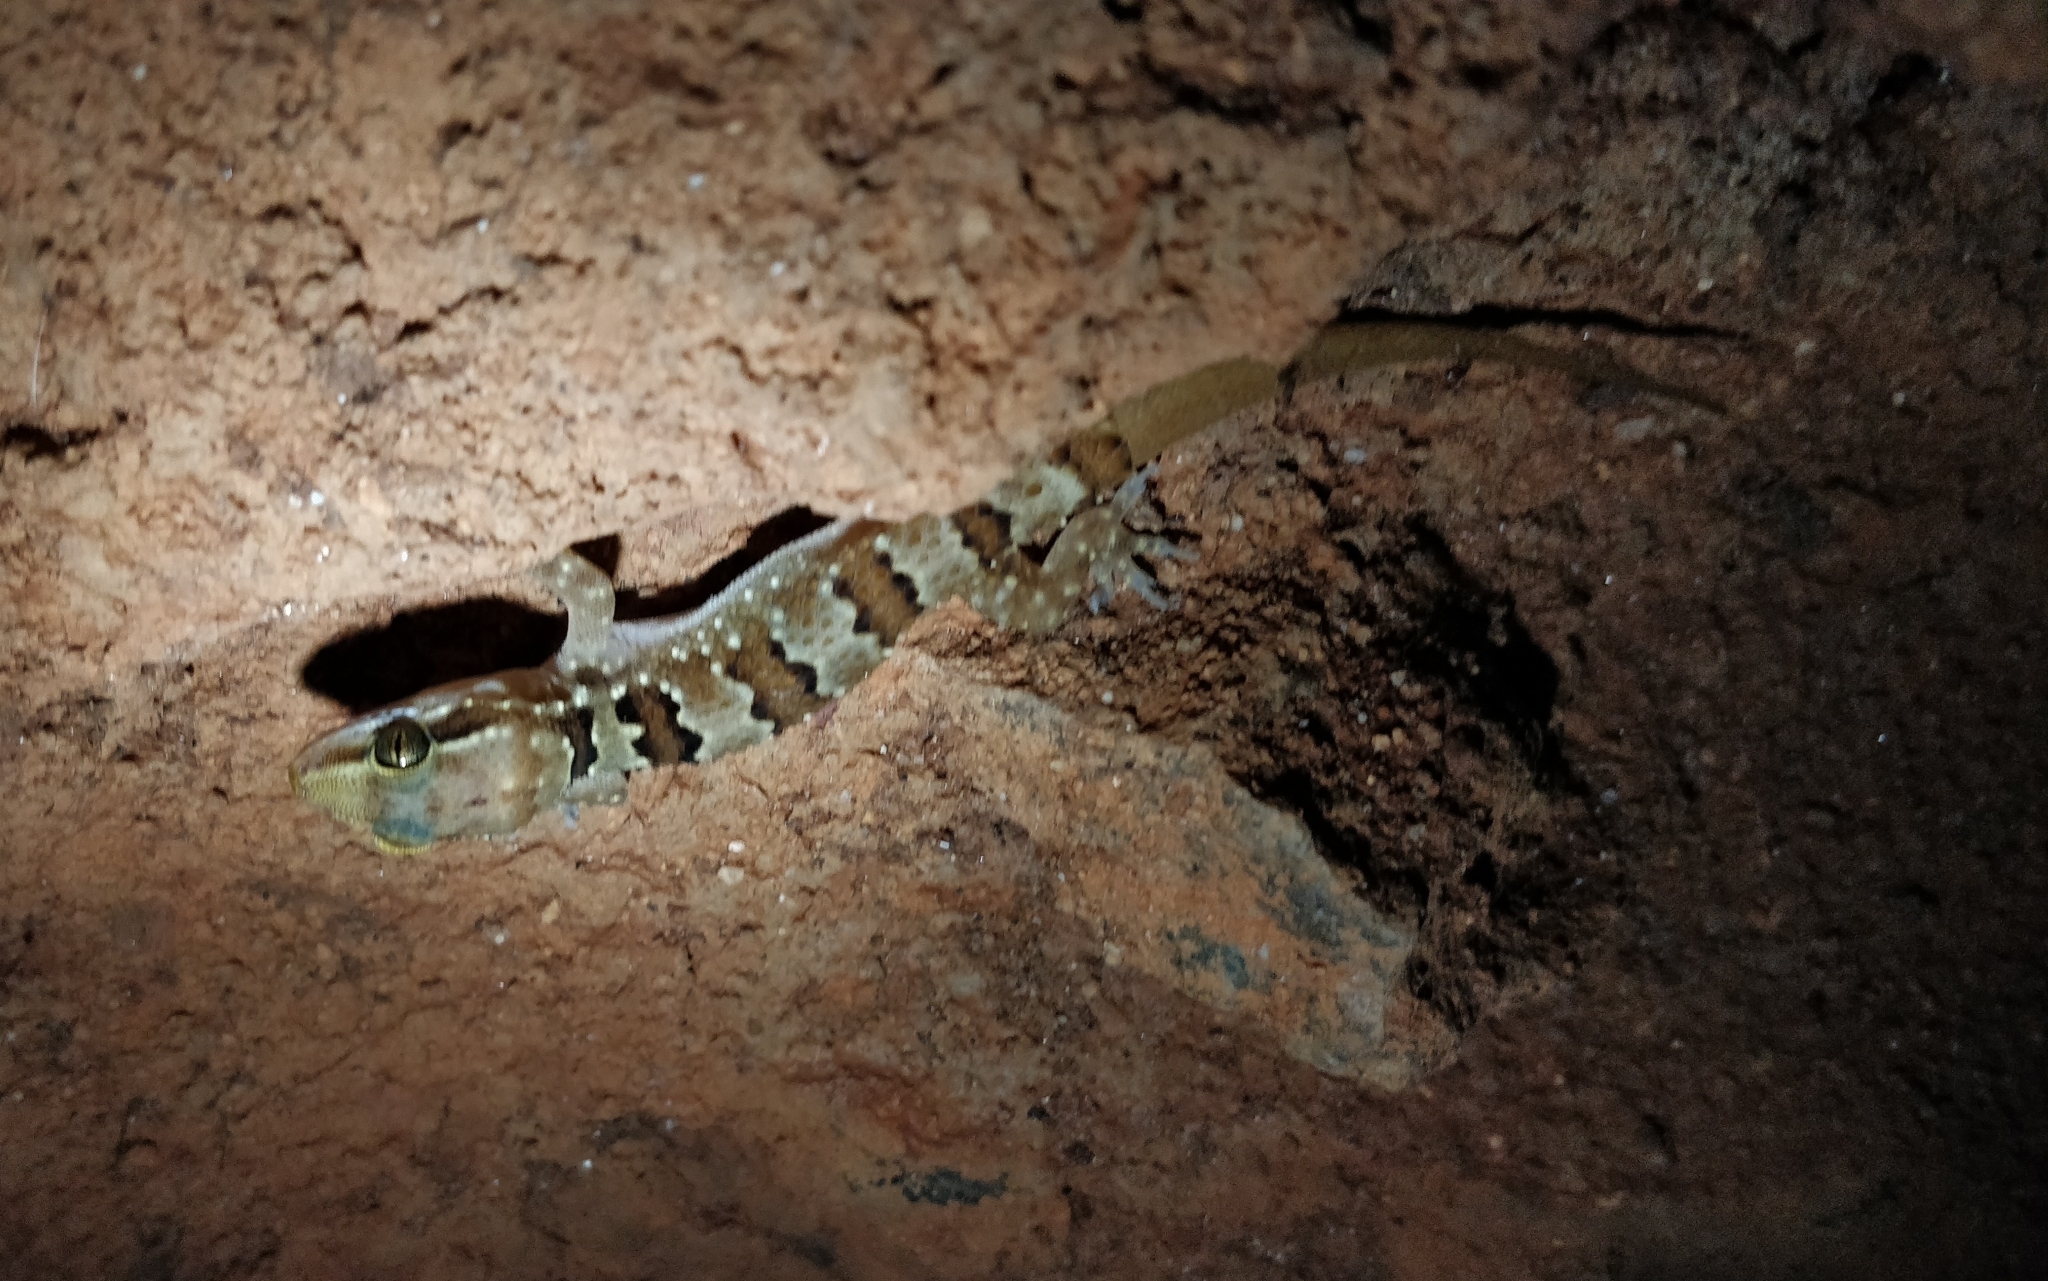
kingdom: Animalia
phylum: Chordata
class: Squamata
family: Gekkonidae
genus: Hemidactylus
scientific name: Hemidactylus triedrus
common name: Blotched house gecko
